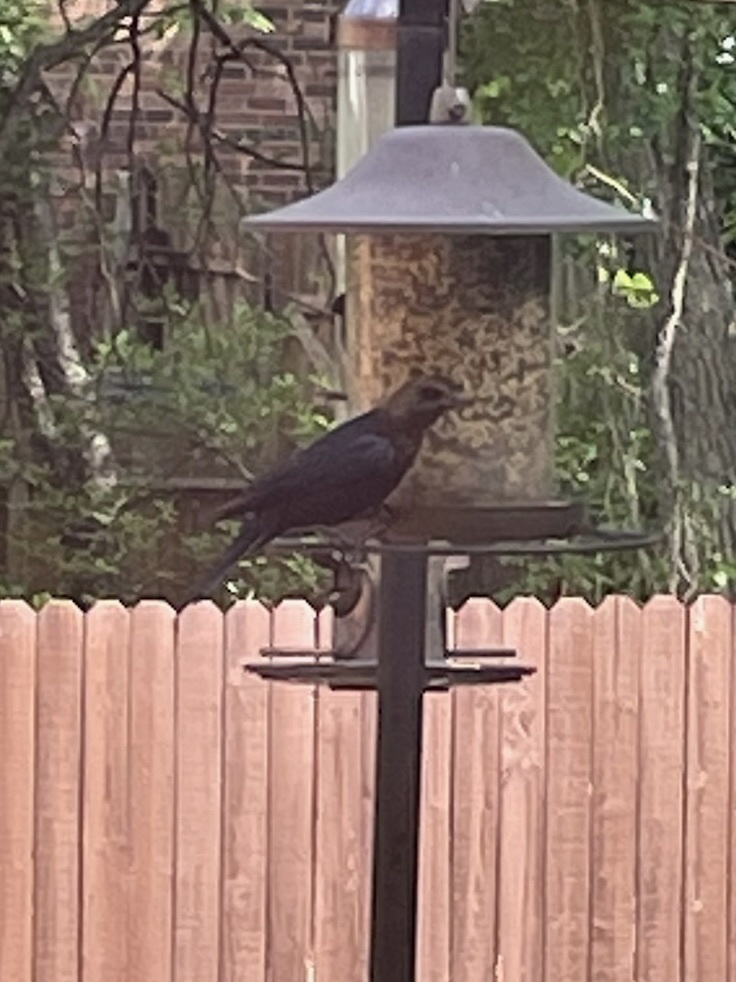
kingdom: Animalia
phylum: Chordata
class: Aves
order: Passeriformes
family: Icteridae
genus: Molothrus
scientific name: Molothrus ater
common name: Brown-headed cowbird
